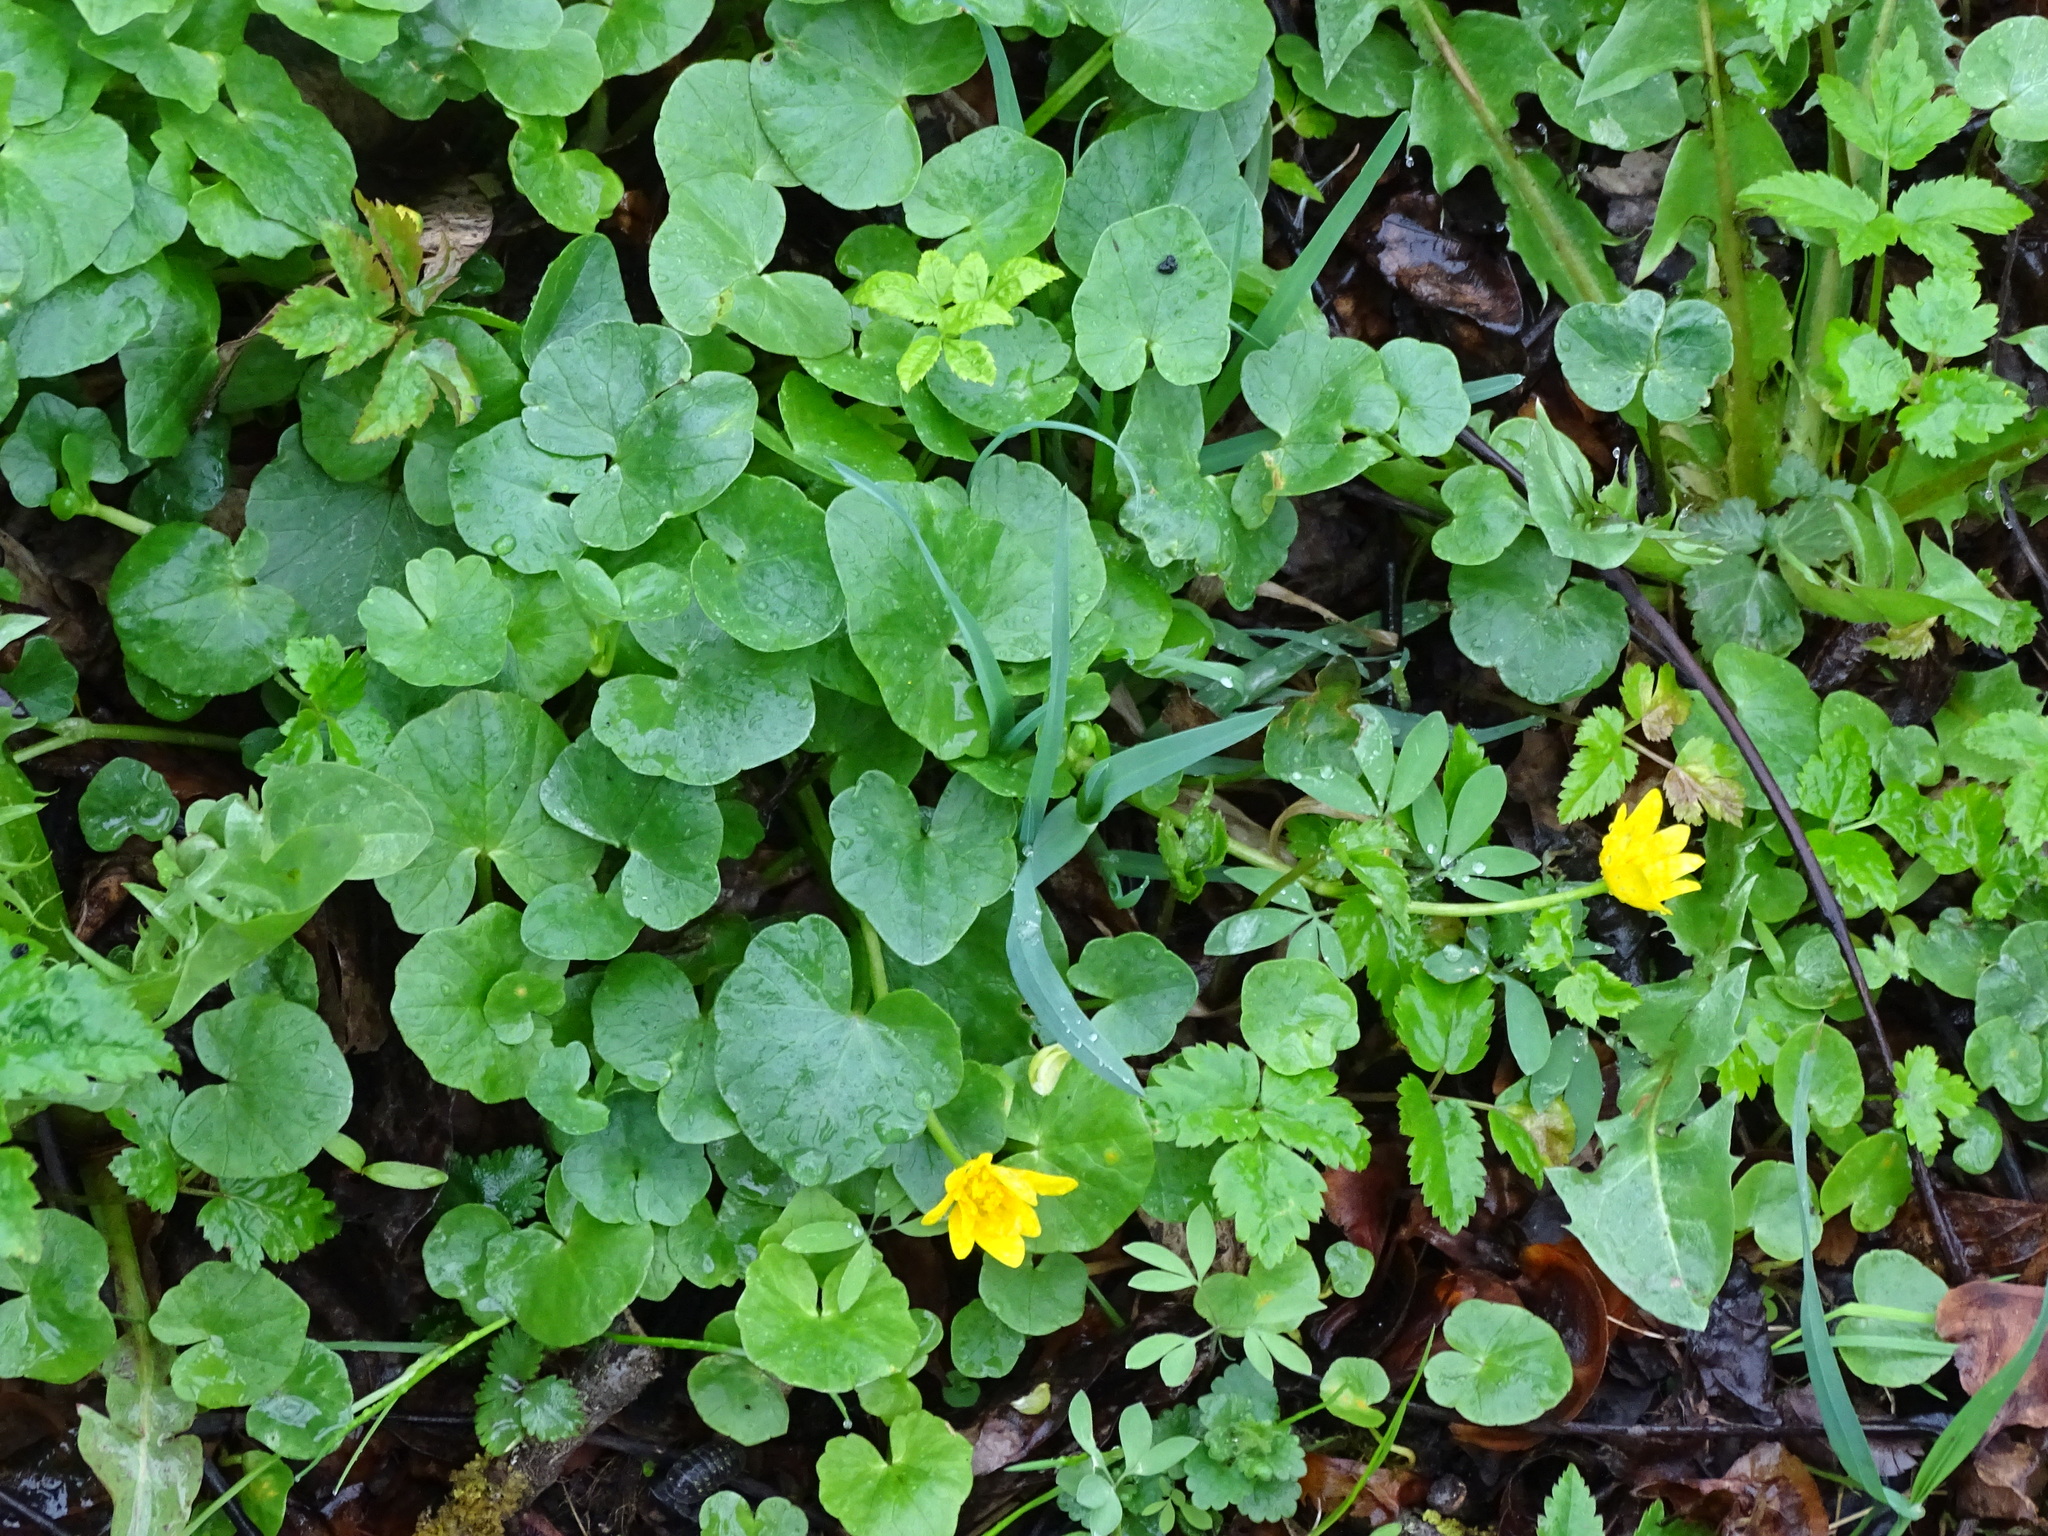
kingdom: Plantae
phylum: Tracheophyta
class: Magnoliopsida
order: Ranunculales
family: Ranunculaceae
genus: Ficaria
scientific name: Ficaria verna
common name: Lesser celandine
